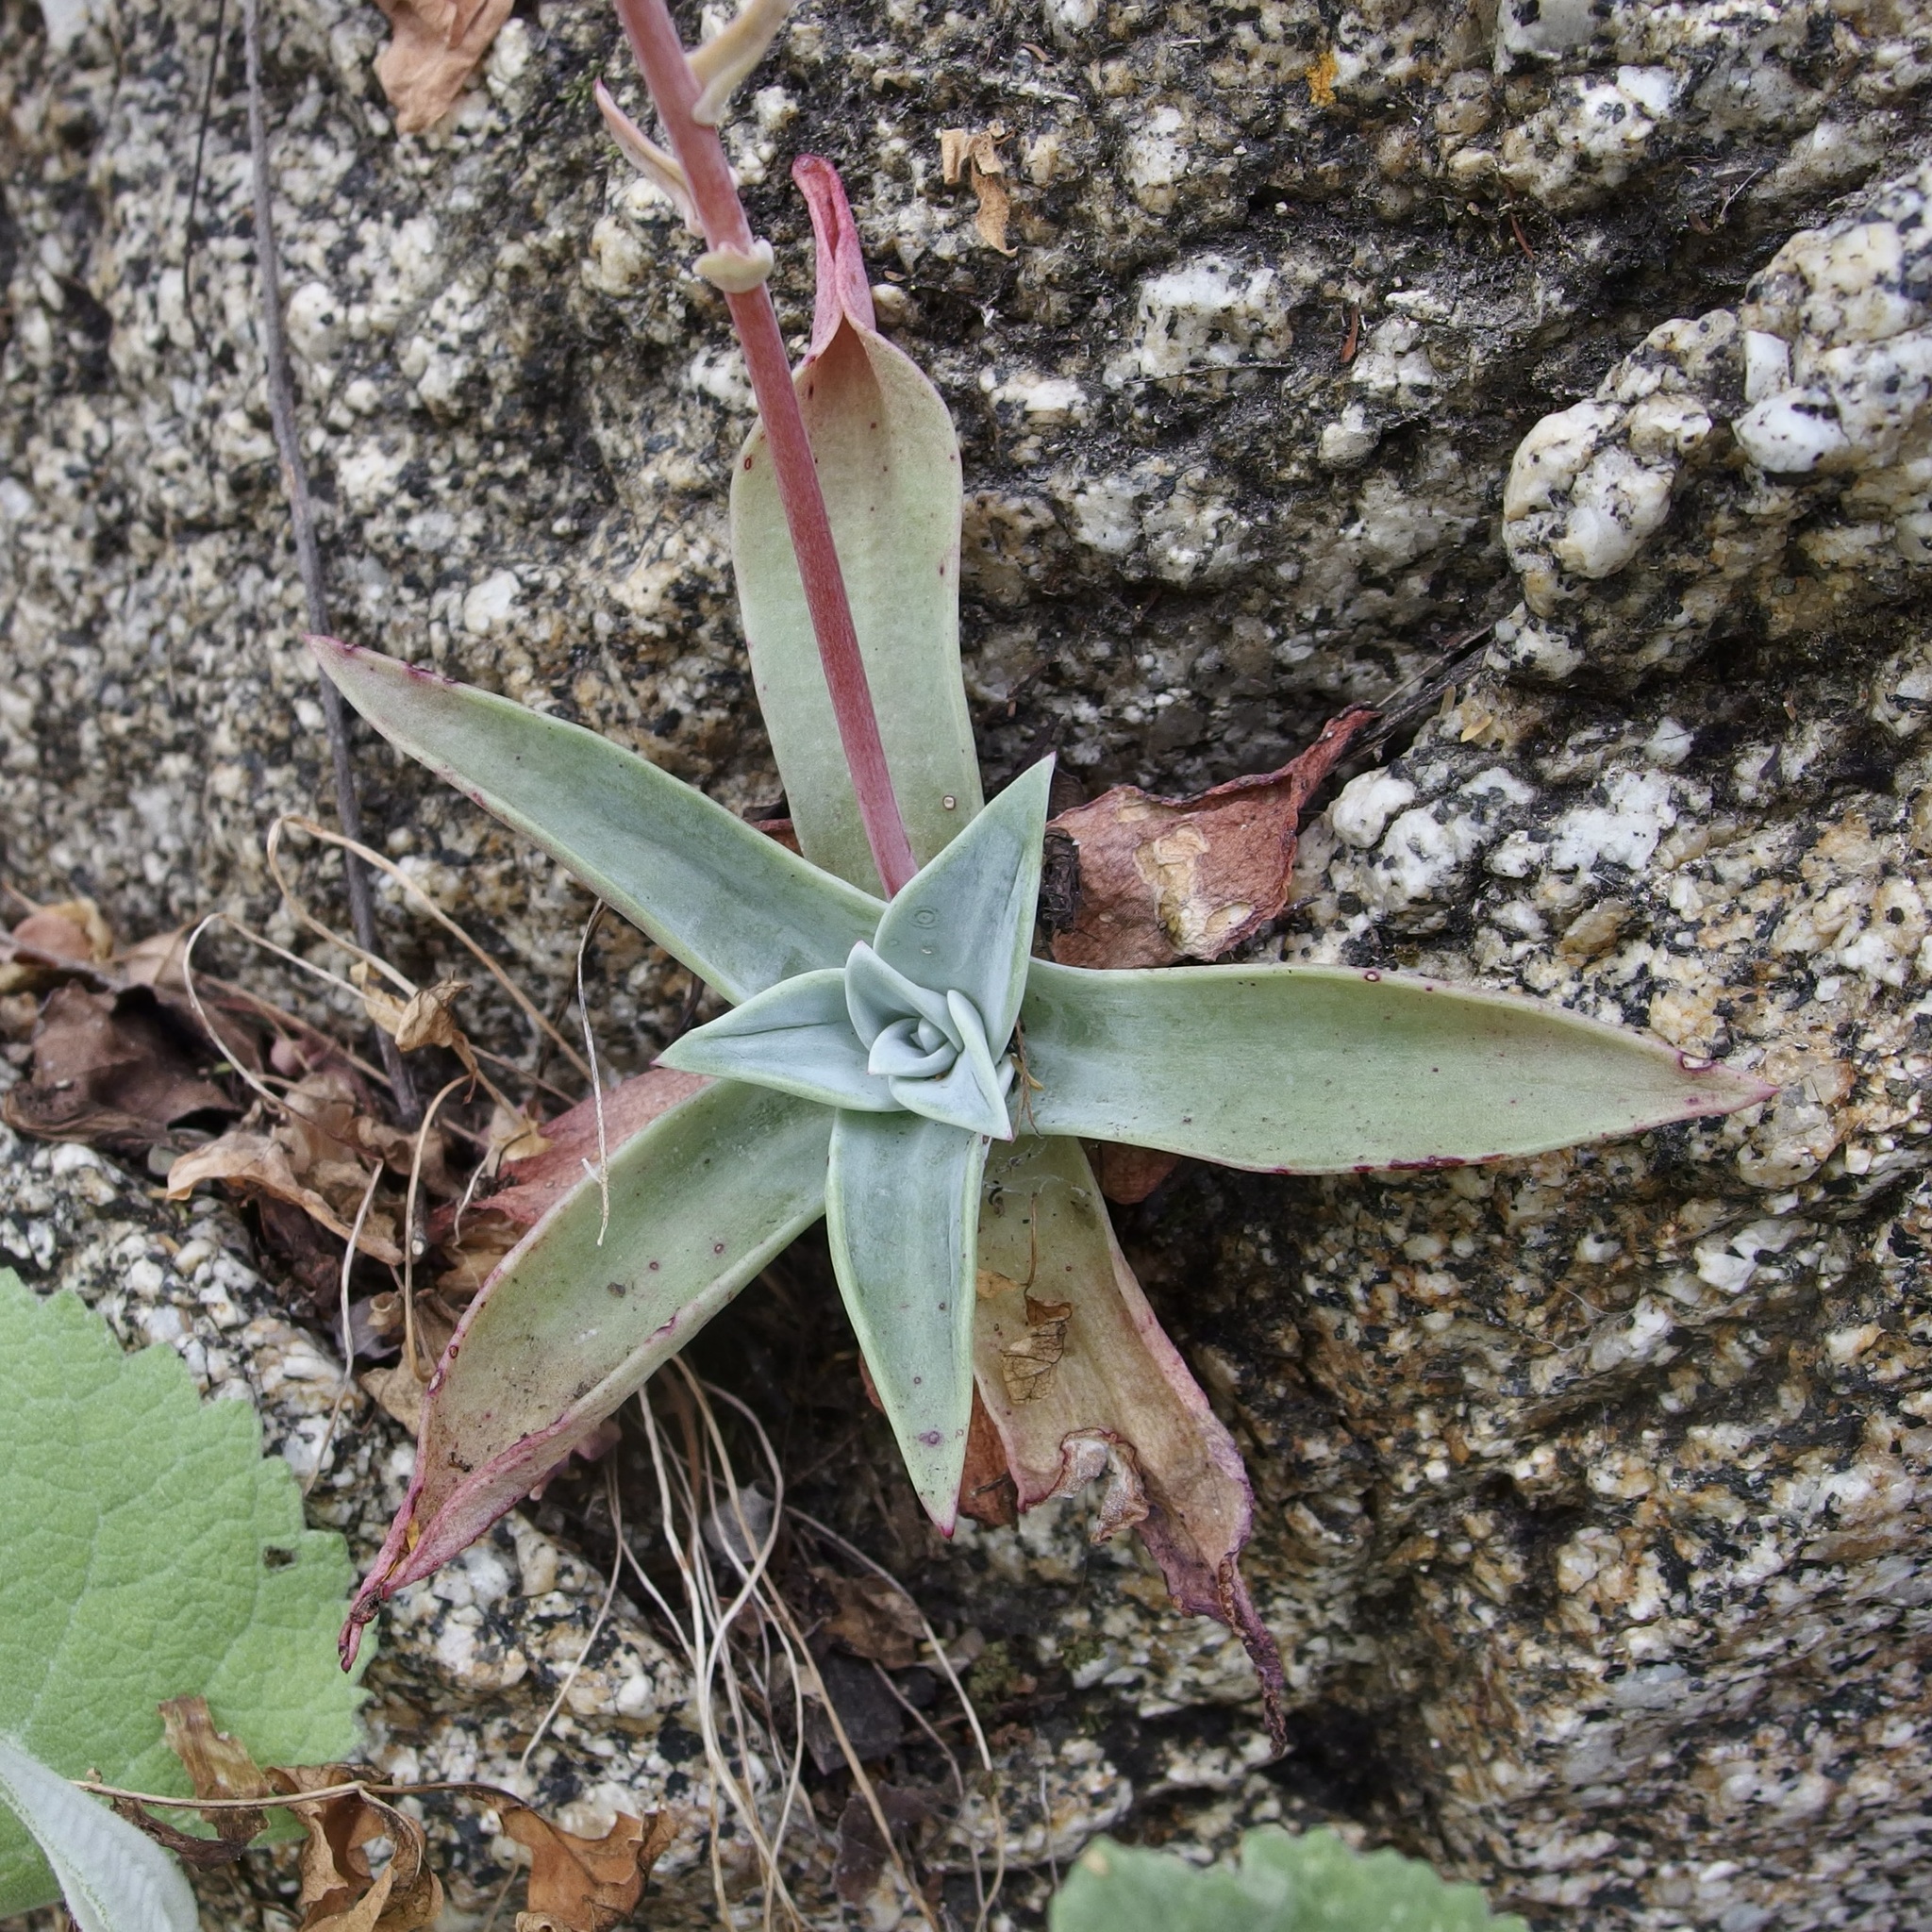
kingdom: Plantae
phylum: Tracheophyta
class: Magnoliopsida
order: Saxifragales
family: Crassulaceae
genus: Dudleya
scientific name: Dudleya nubigena
